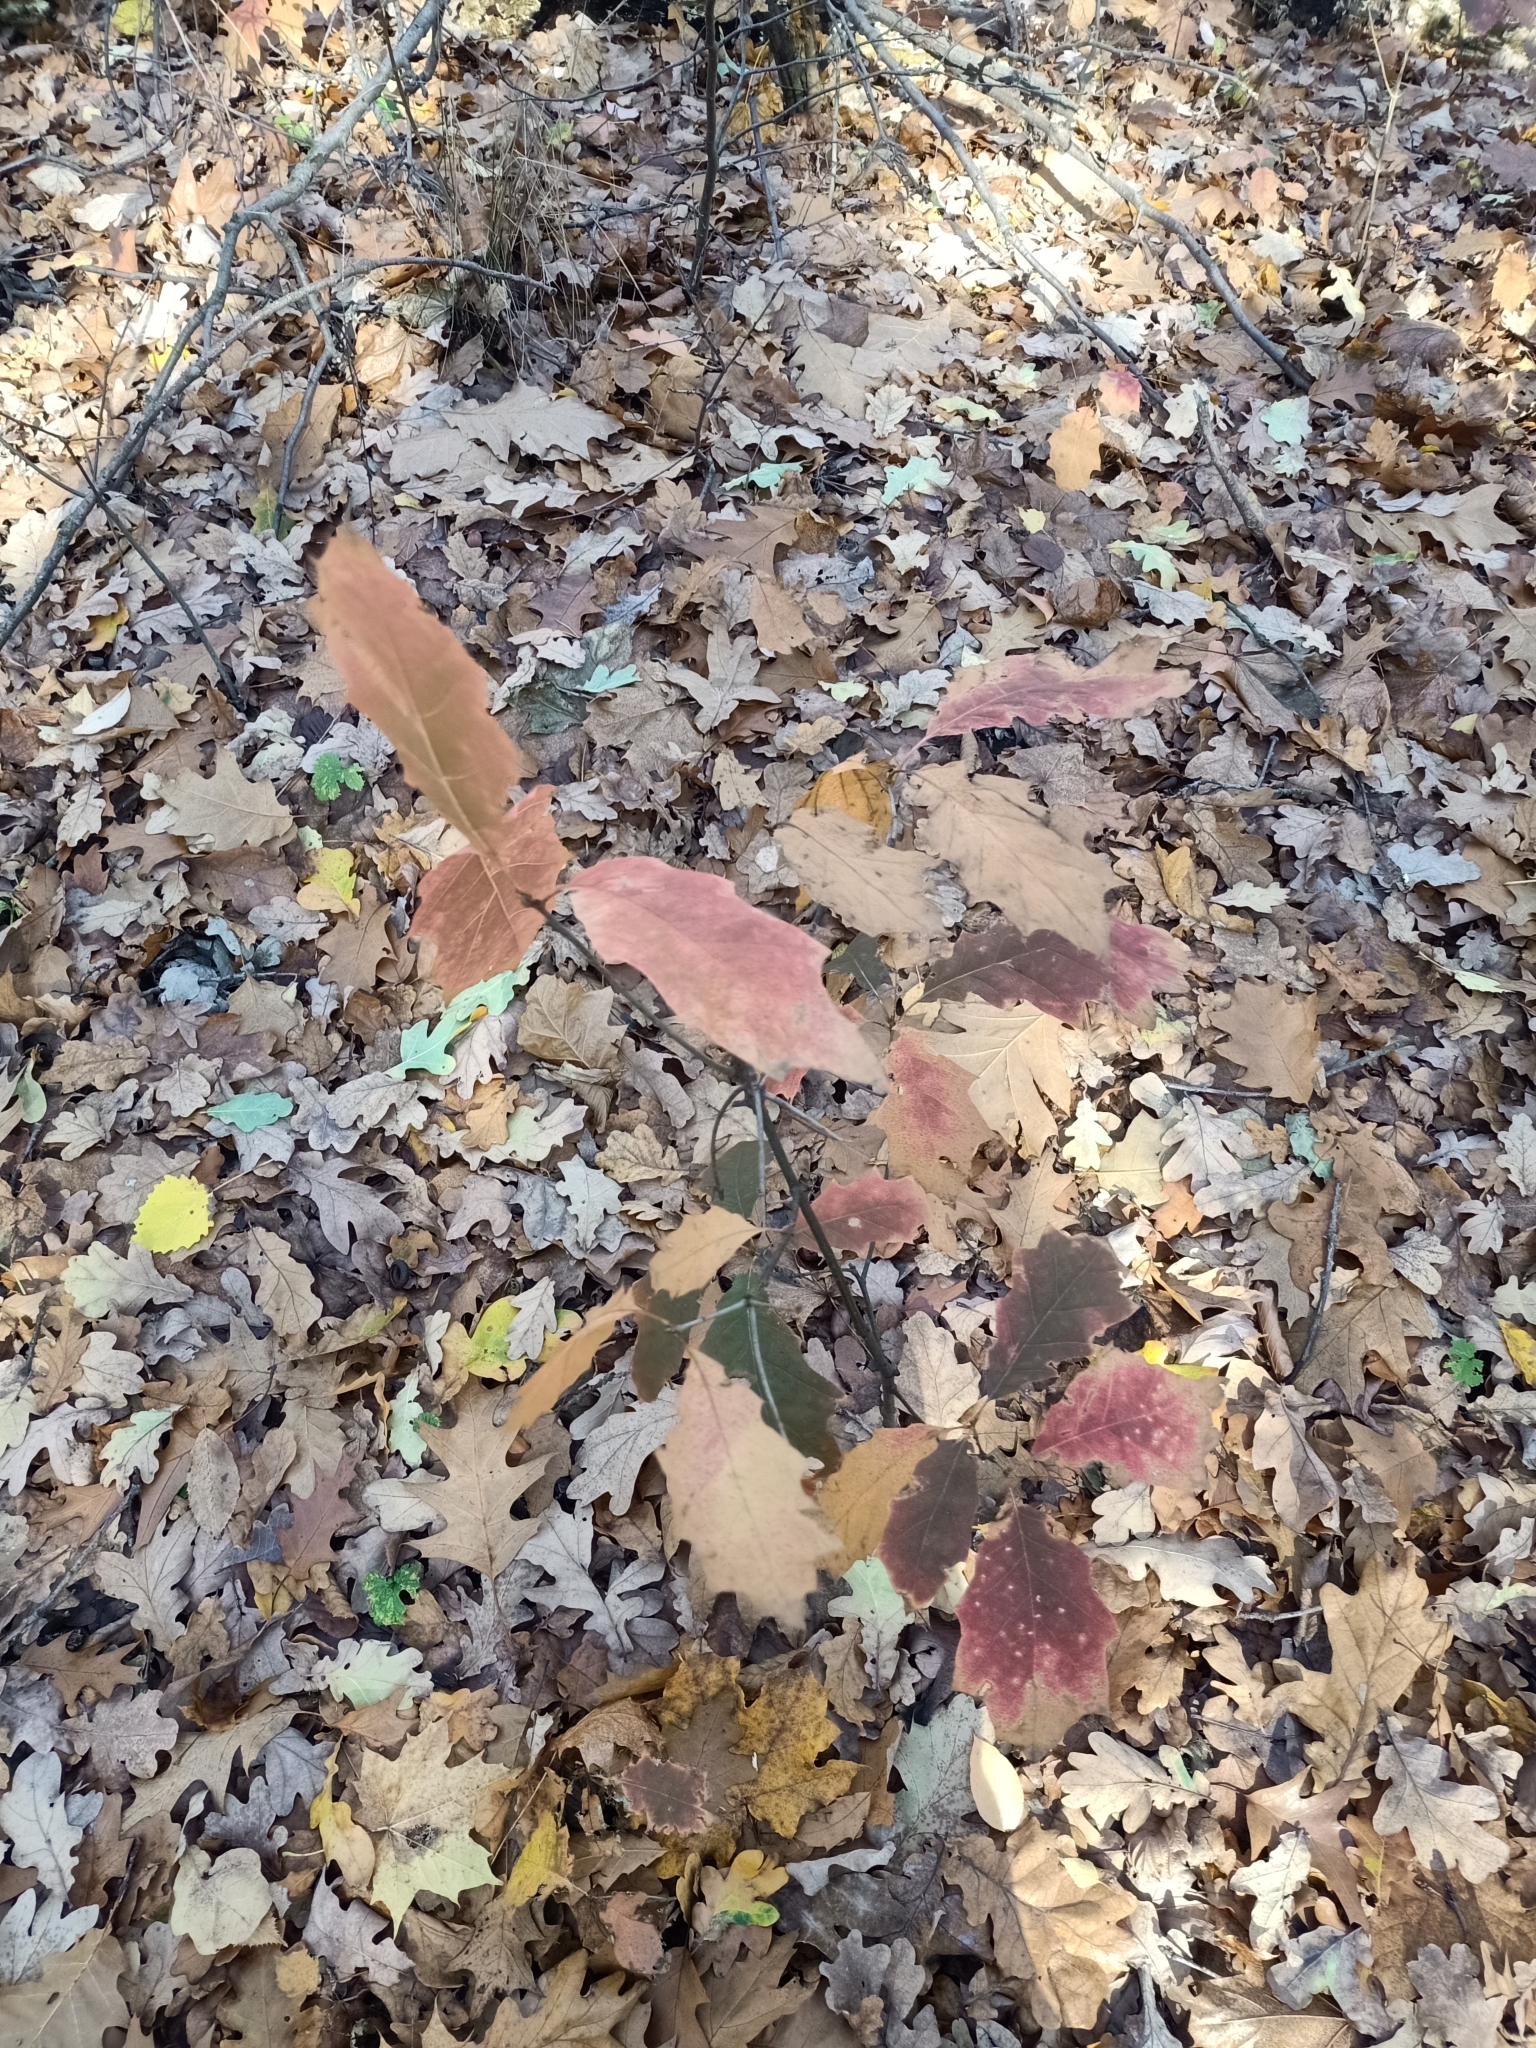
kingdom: Plantae
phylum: Tracheophyta
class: Magnoliopsida
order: Fagales
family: Fagaceae
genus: Quercus
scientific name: Quercus rubra
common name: Red oak
